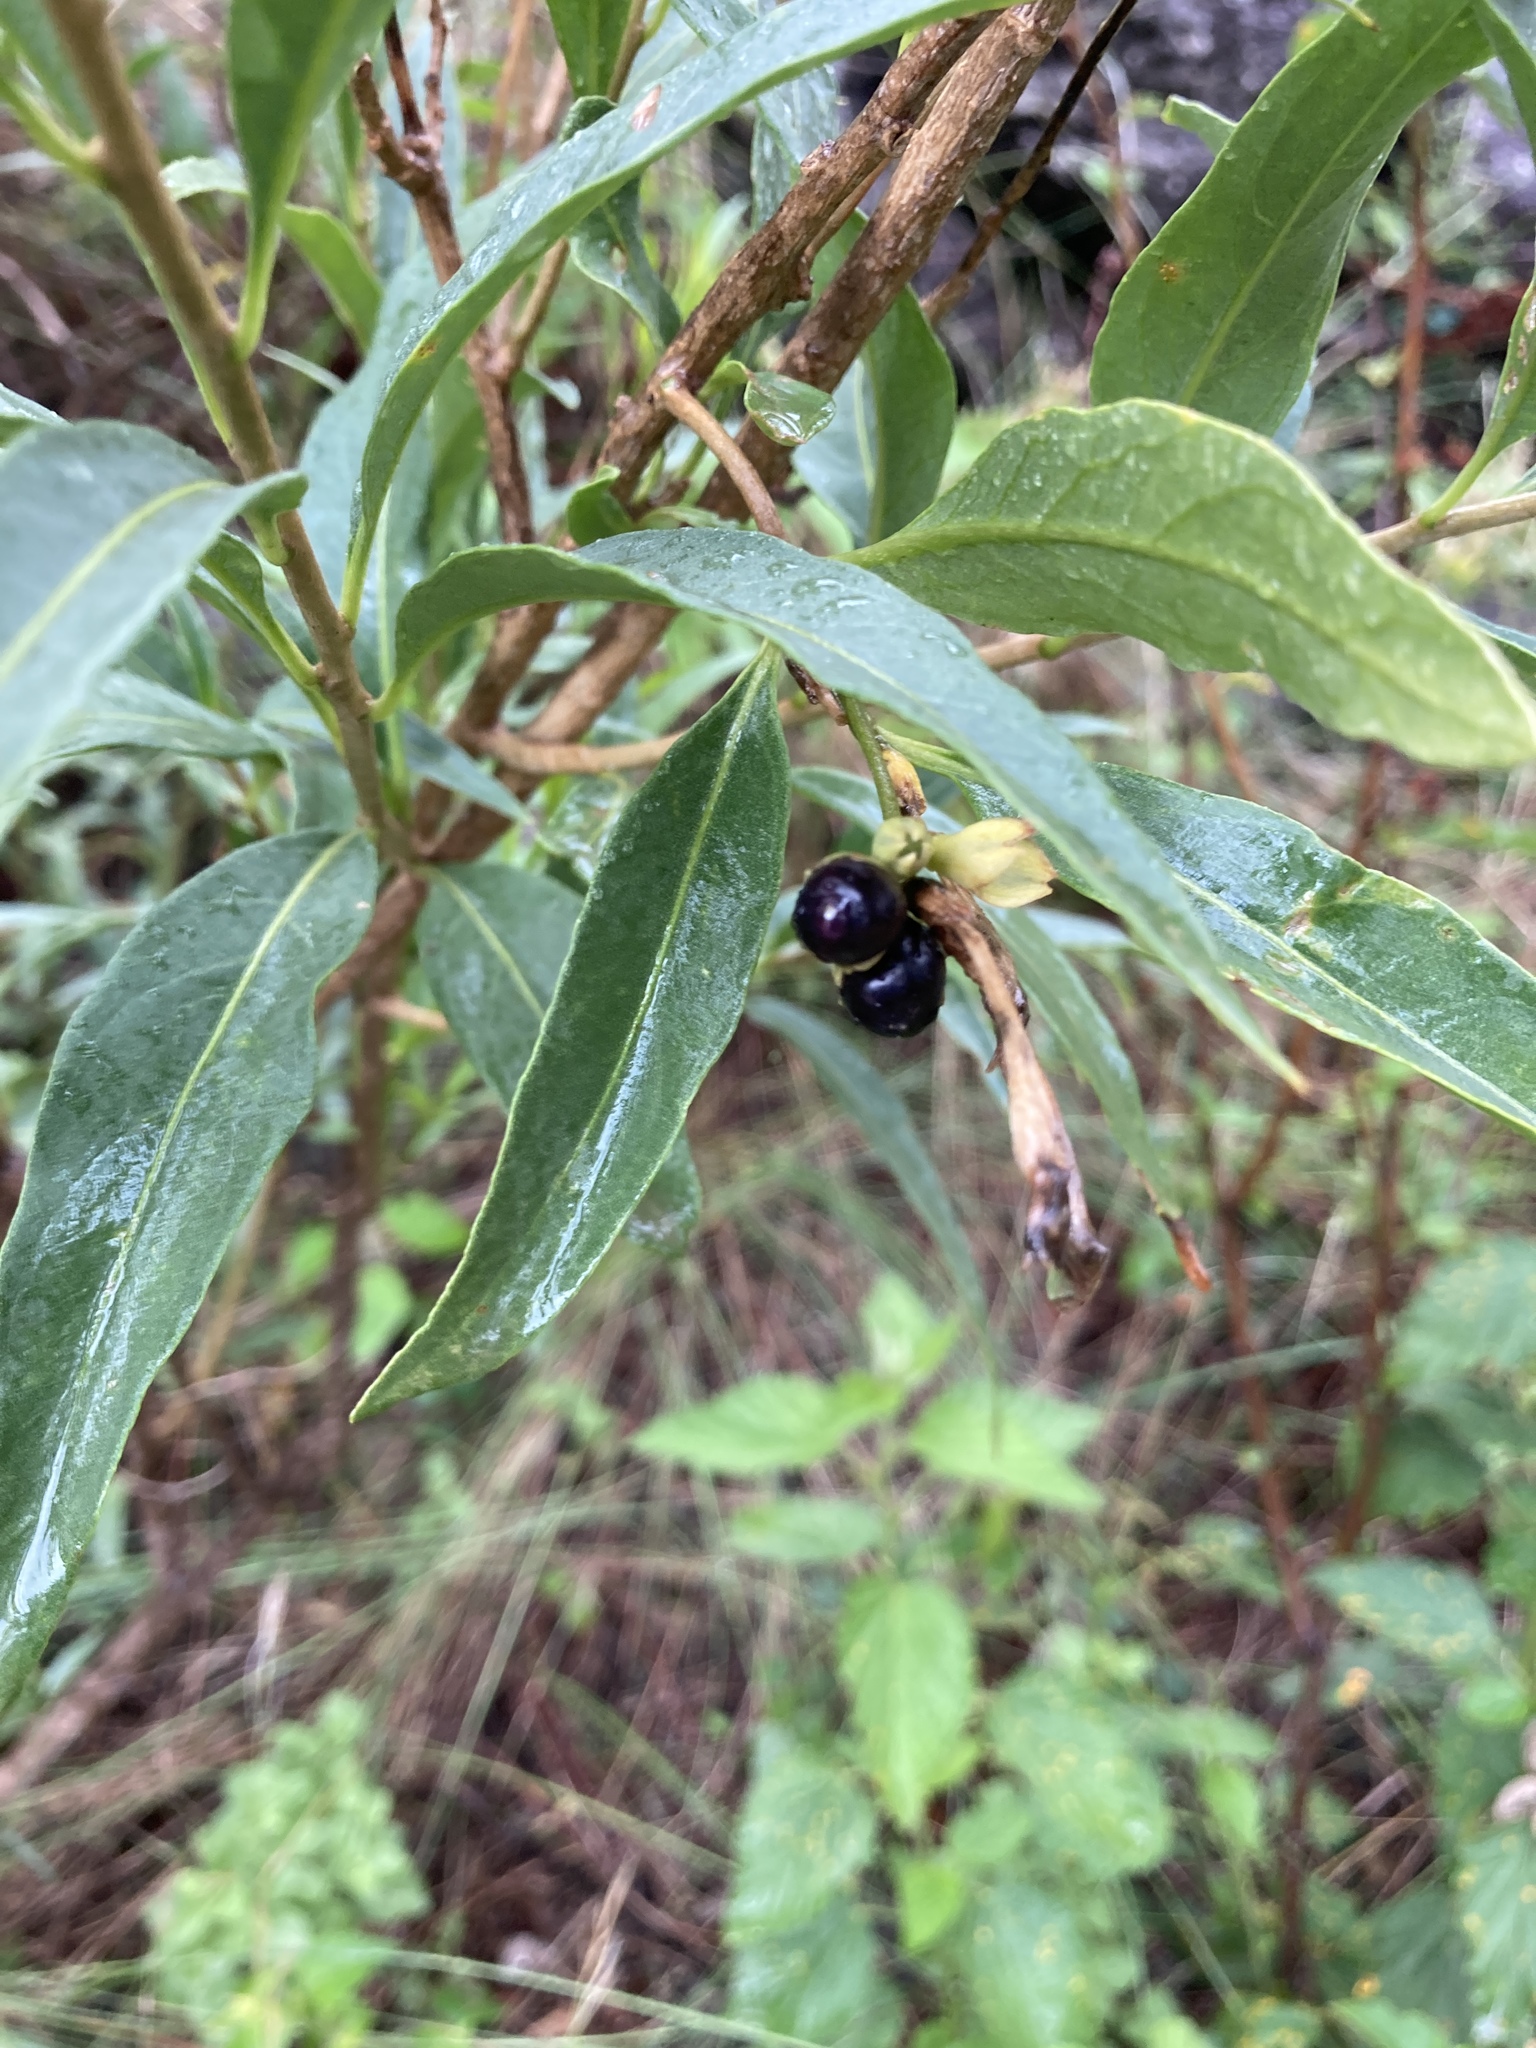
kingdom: Plantae
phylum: Tracheophyta
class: Magnoliopsida
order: Solanales
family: Solanaceae
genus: Cestrum
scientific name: Cestrum parqui
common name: Chilean cestrum
